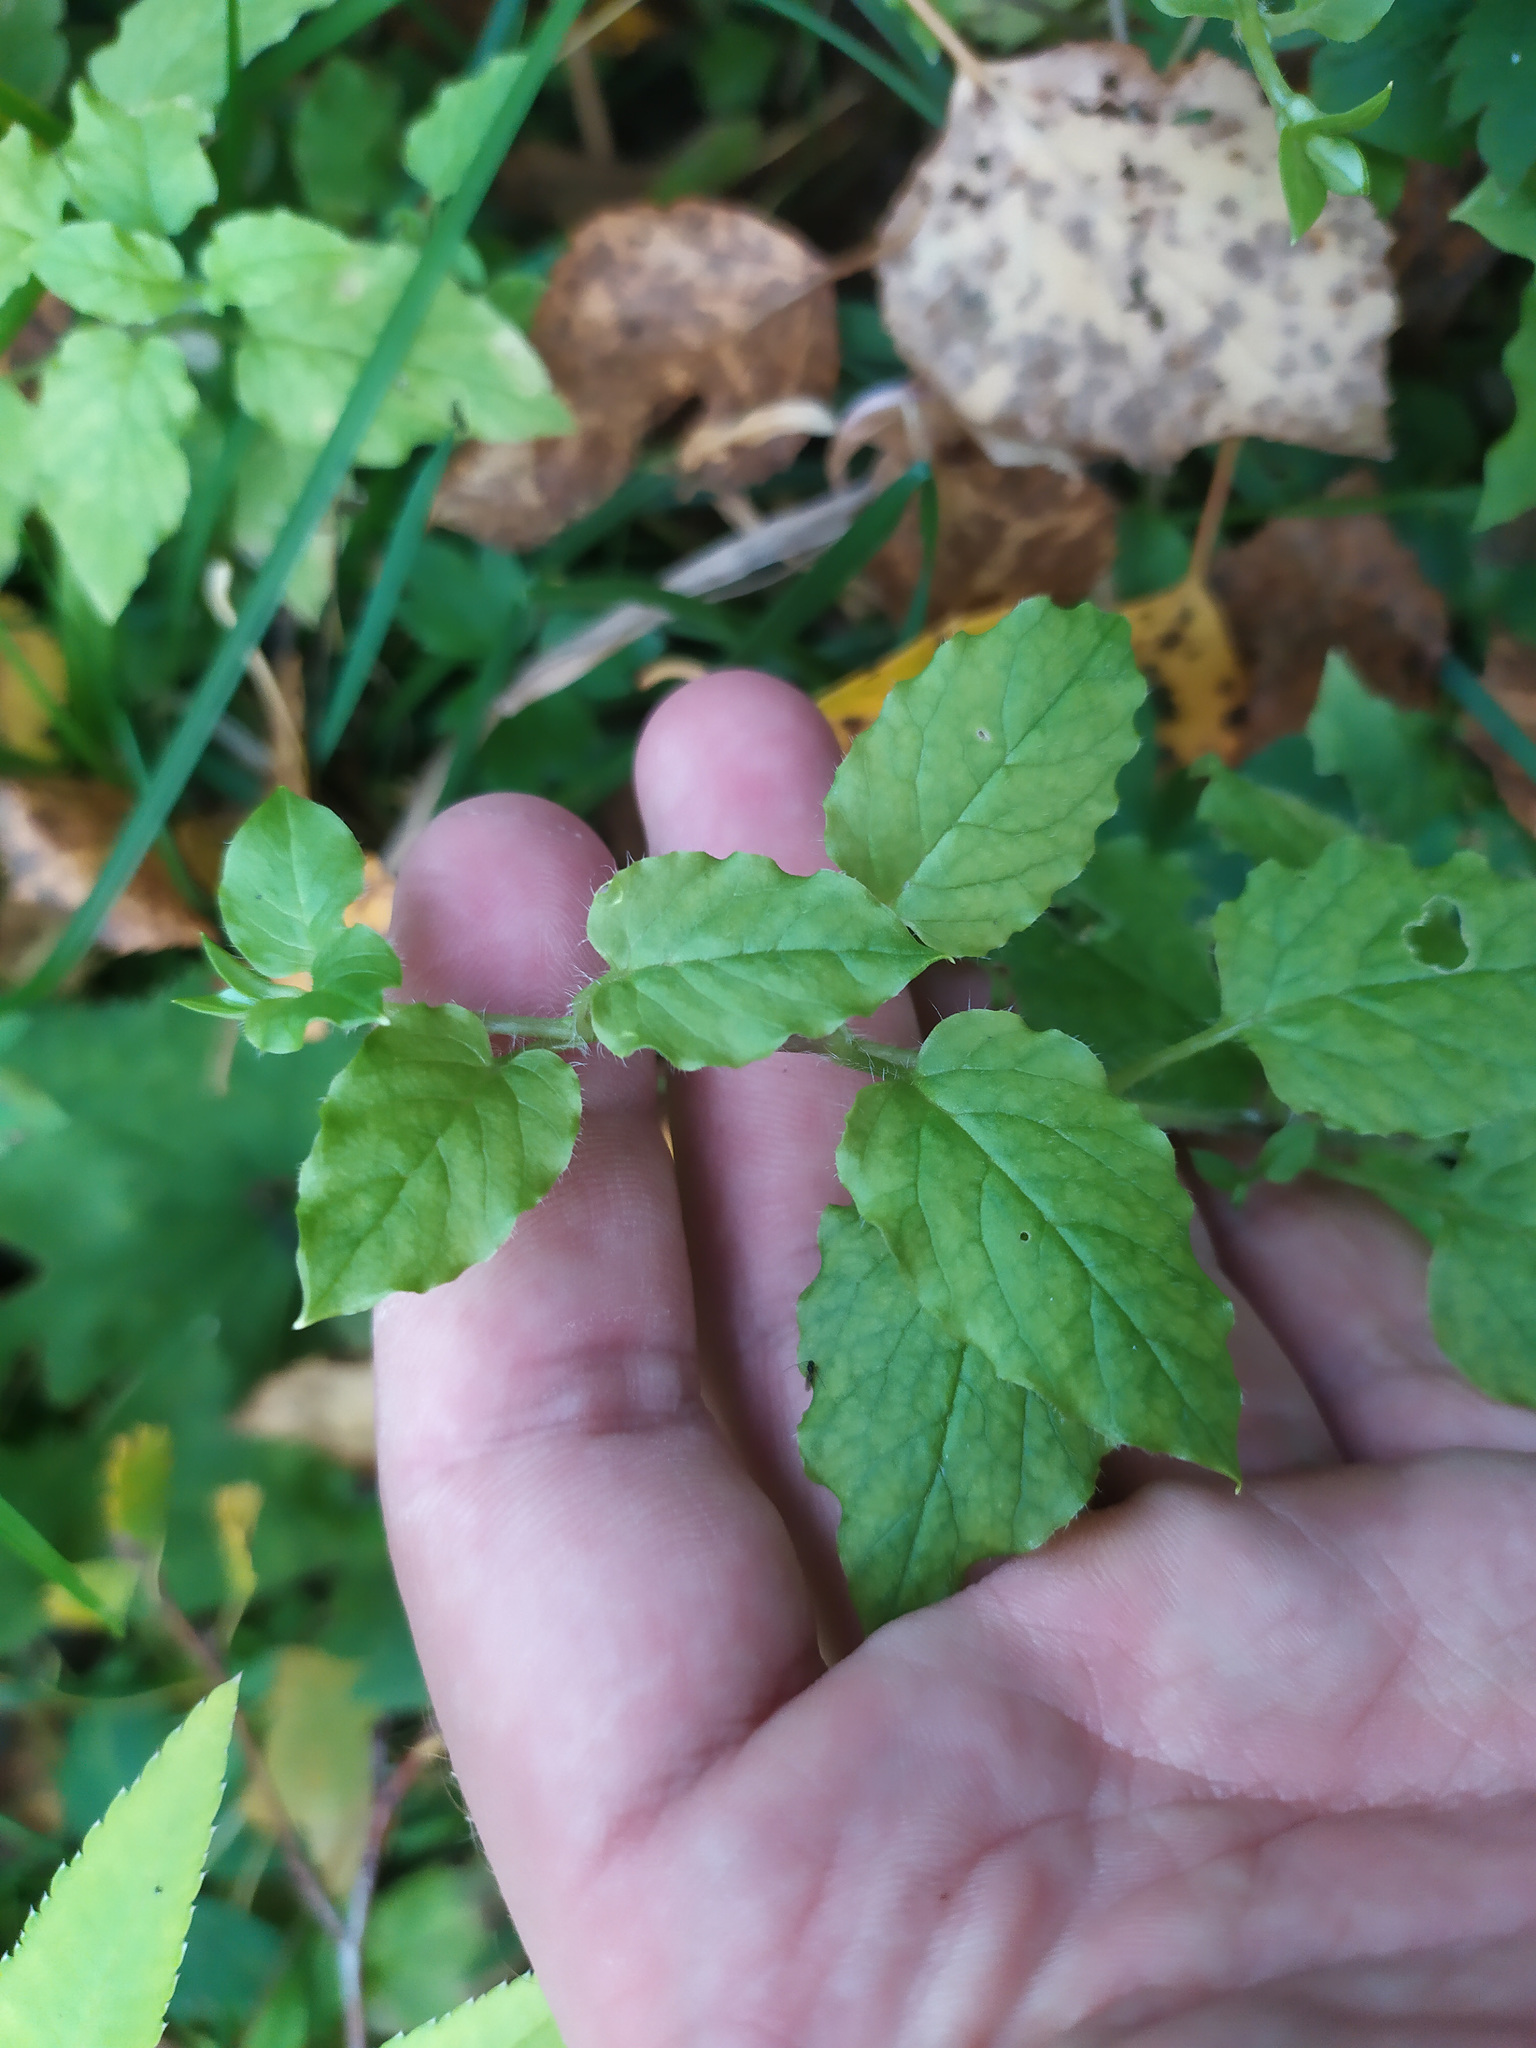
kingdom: Plantae
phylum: Tracheophyta
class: Magnoliopsida
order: Caryophyllales
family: Caryophyllaceae
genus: Stellaria
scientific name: Stellaria nemorum
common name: Wood stitchwort
